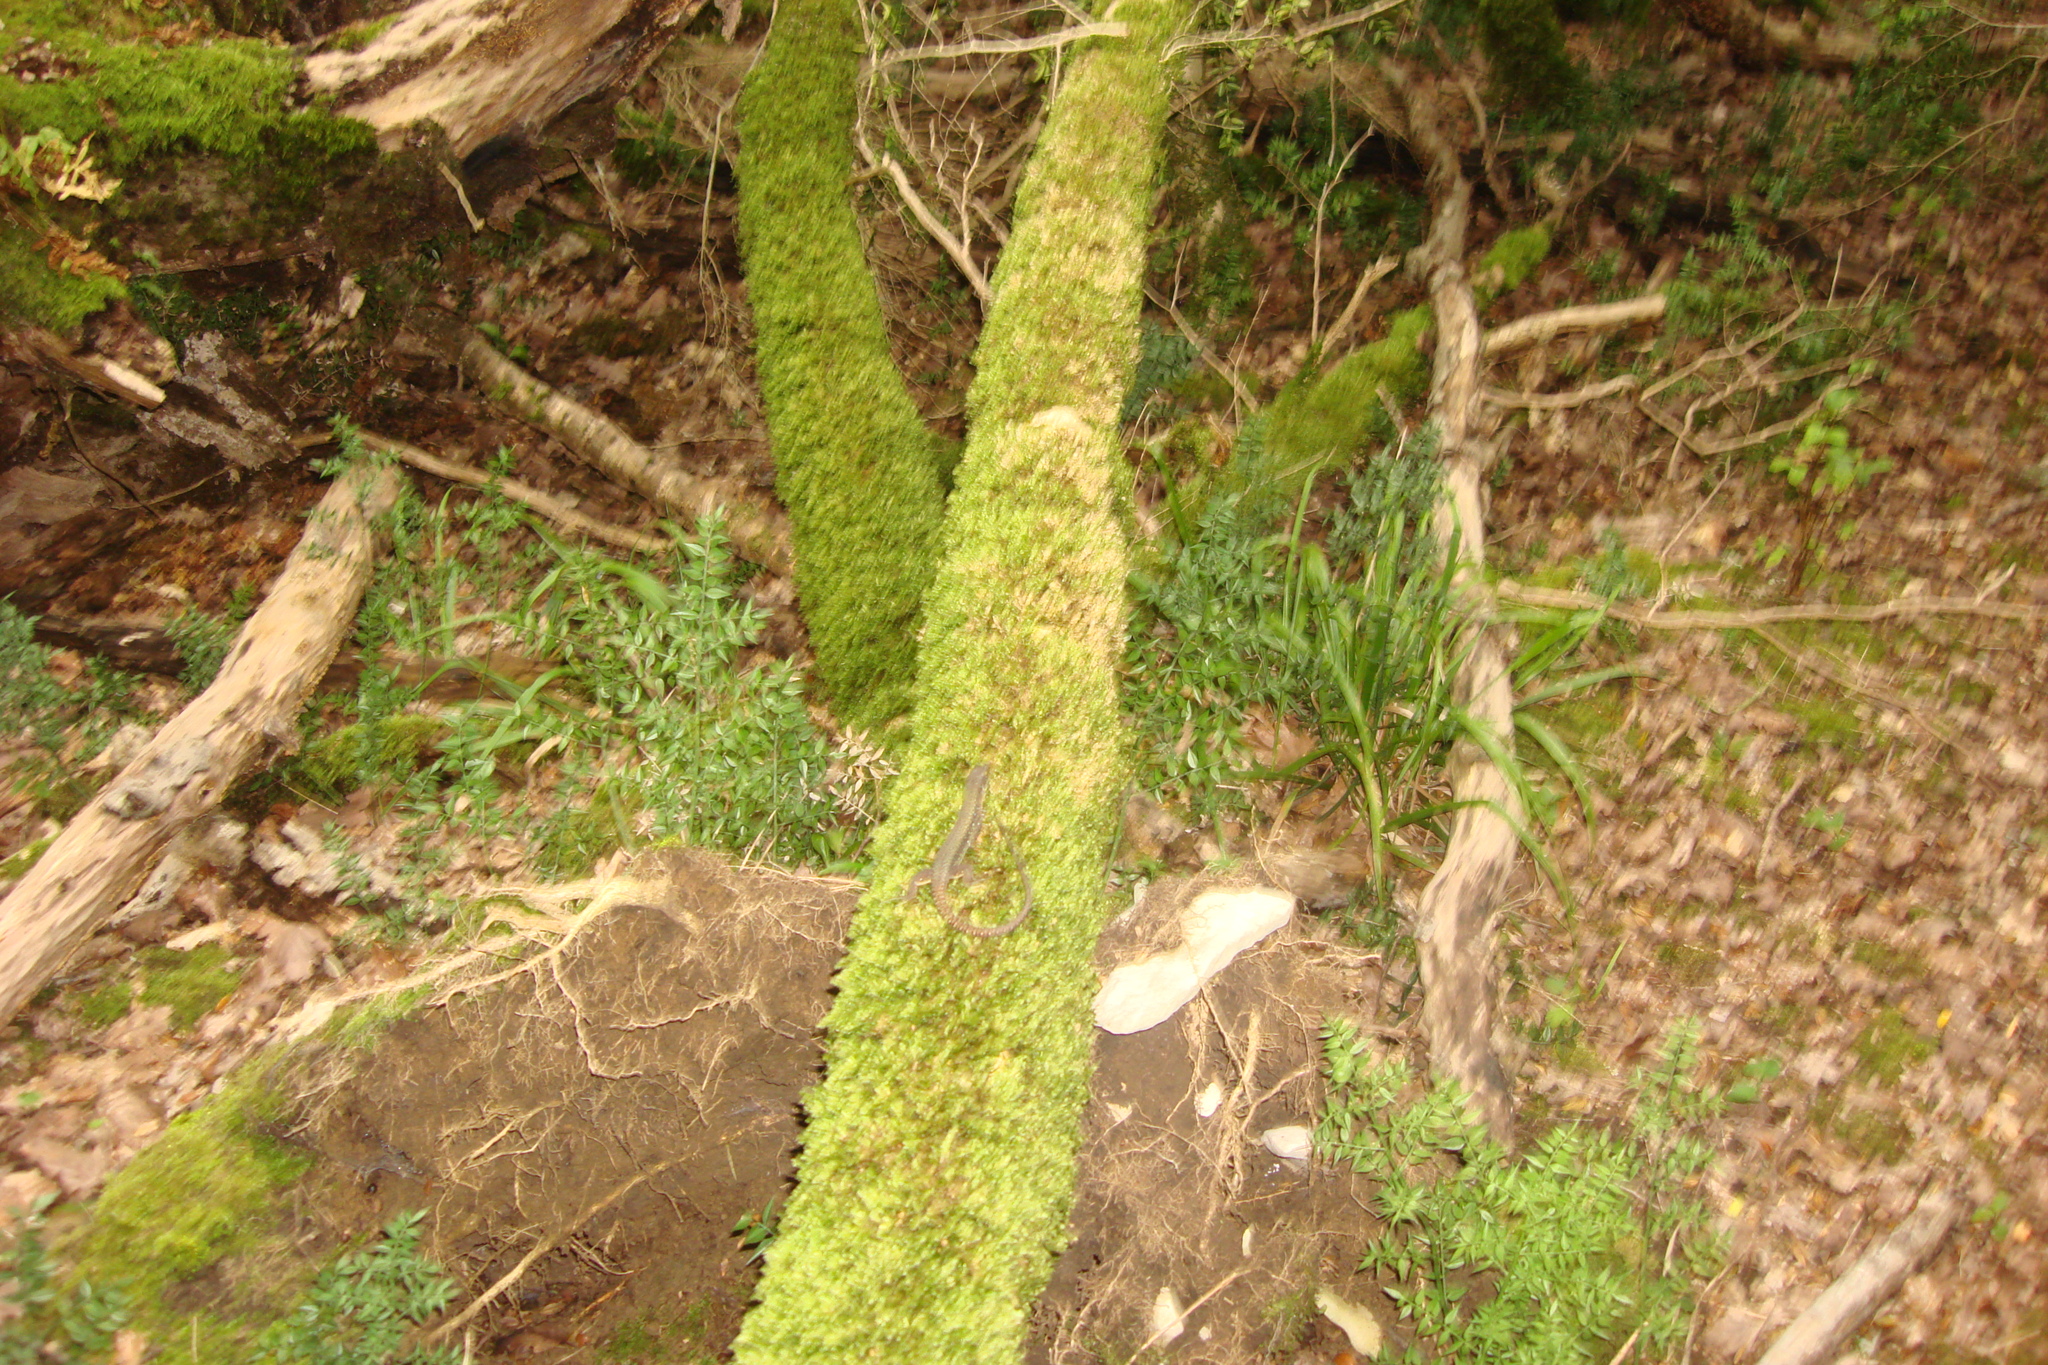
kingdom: Animalia
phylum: Chordata
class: Squamata
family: Lacertidae
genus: Darevskia
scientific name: Darevskia brauneri
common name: Brauner's rock lizard
